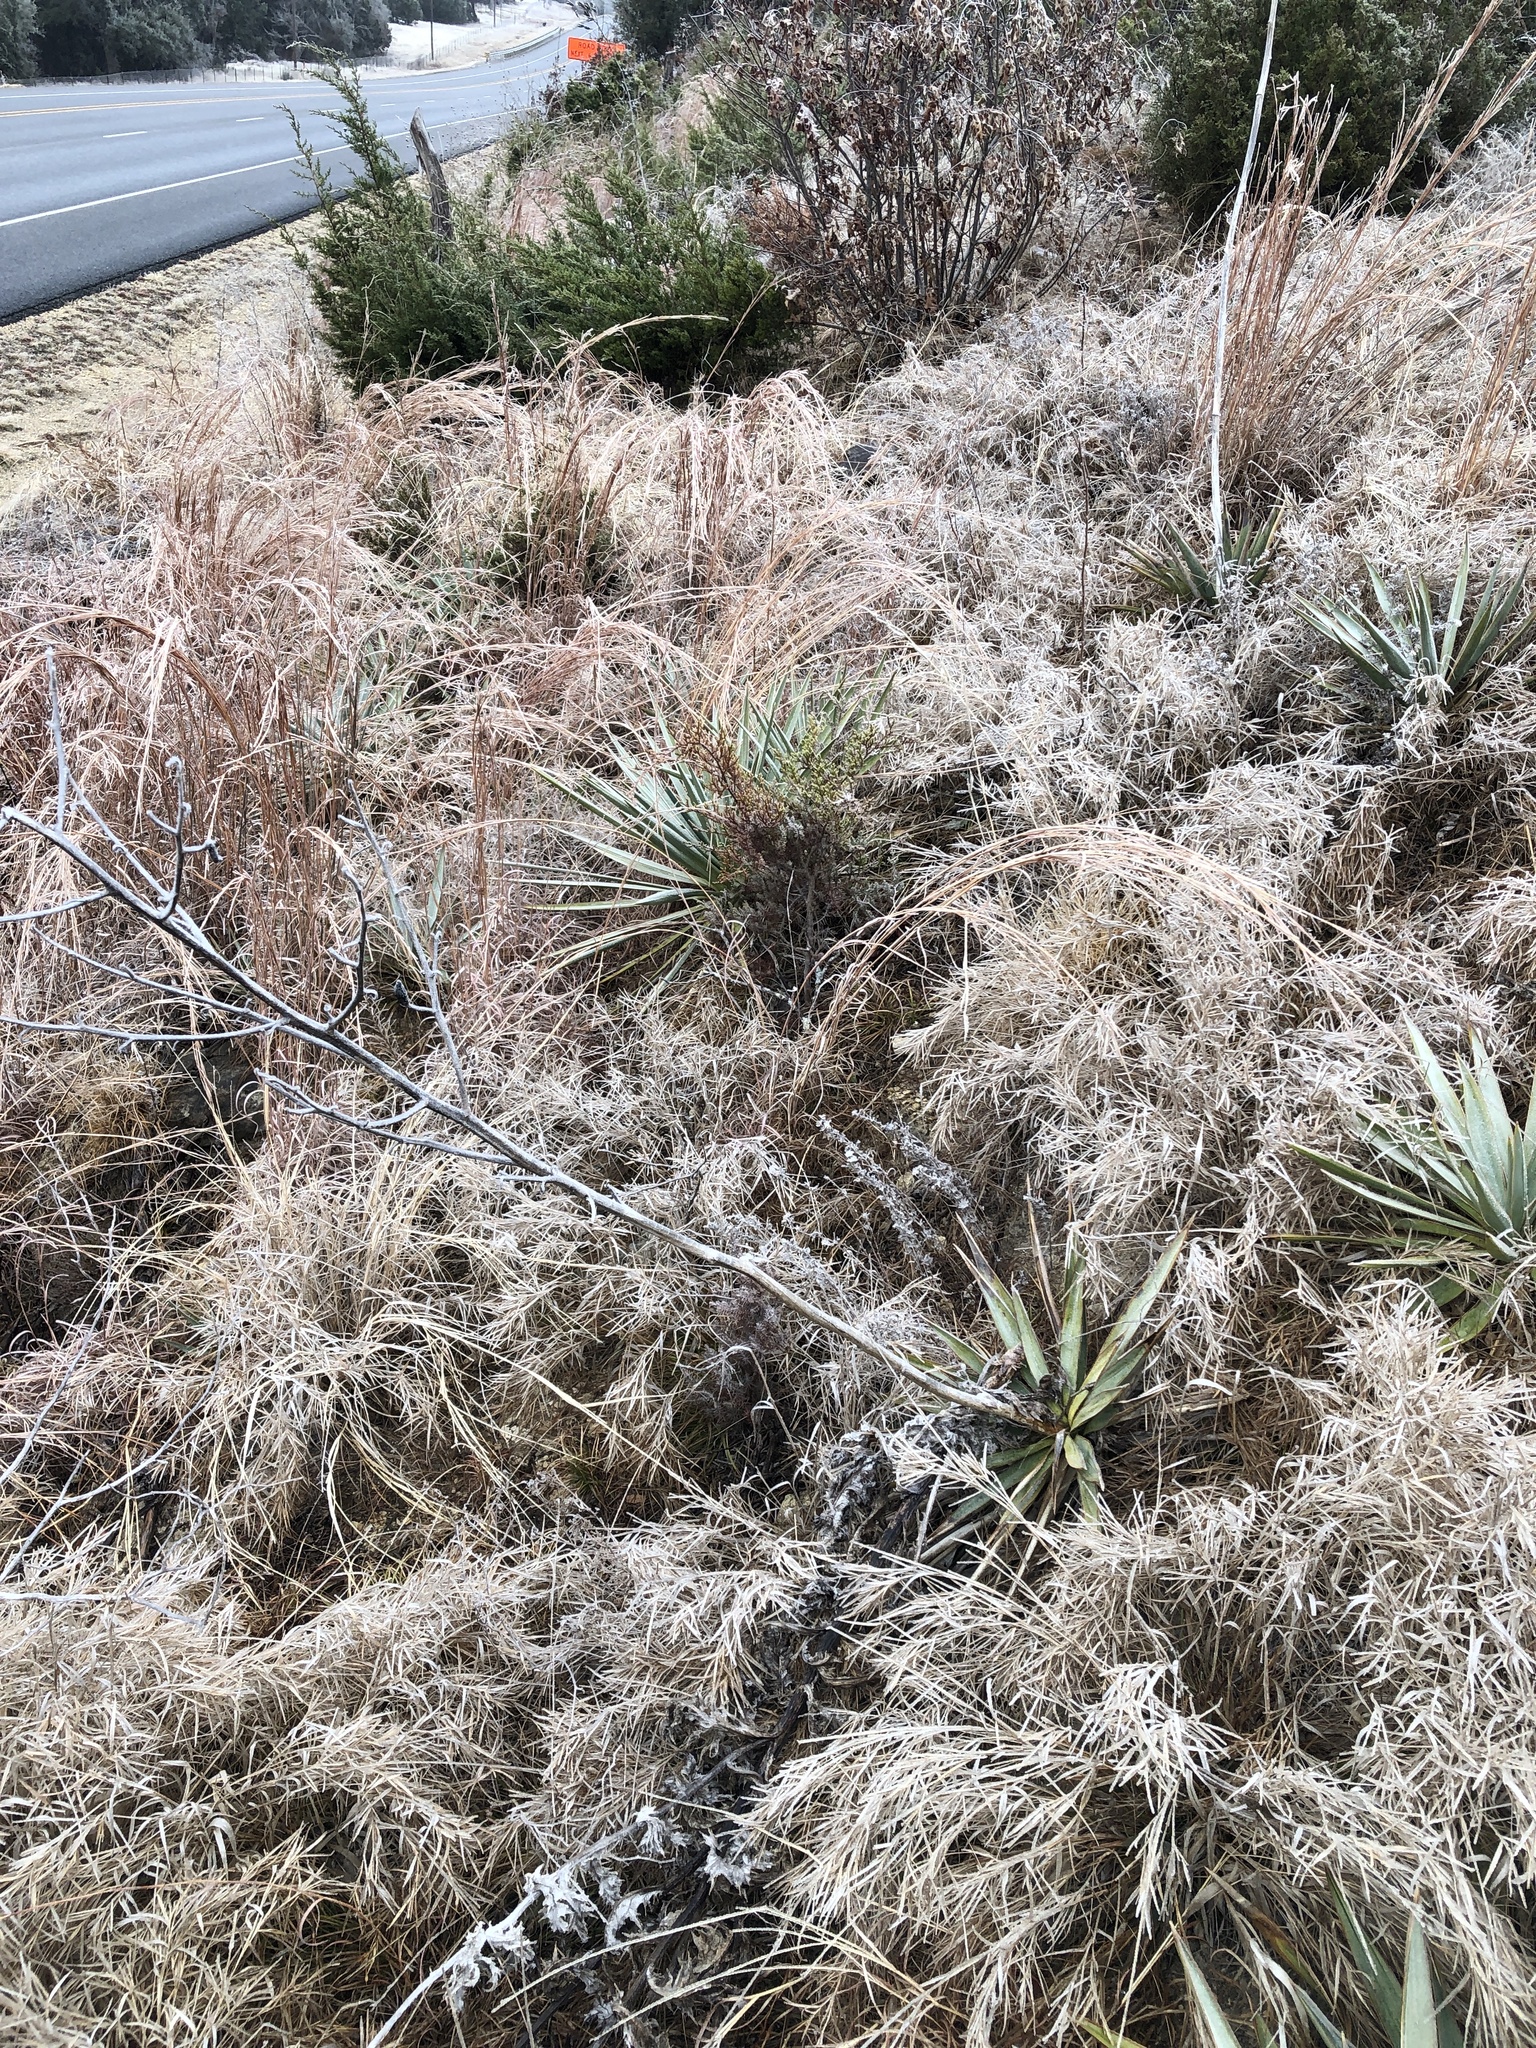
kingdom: Plantae
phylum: Tracheophyta
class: Liliopsida
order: Asparagales
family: Asparagaceae
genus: Yucca
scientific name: Yucca pallida
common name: Pale leaf yucca
